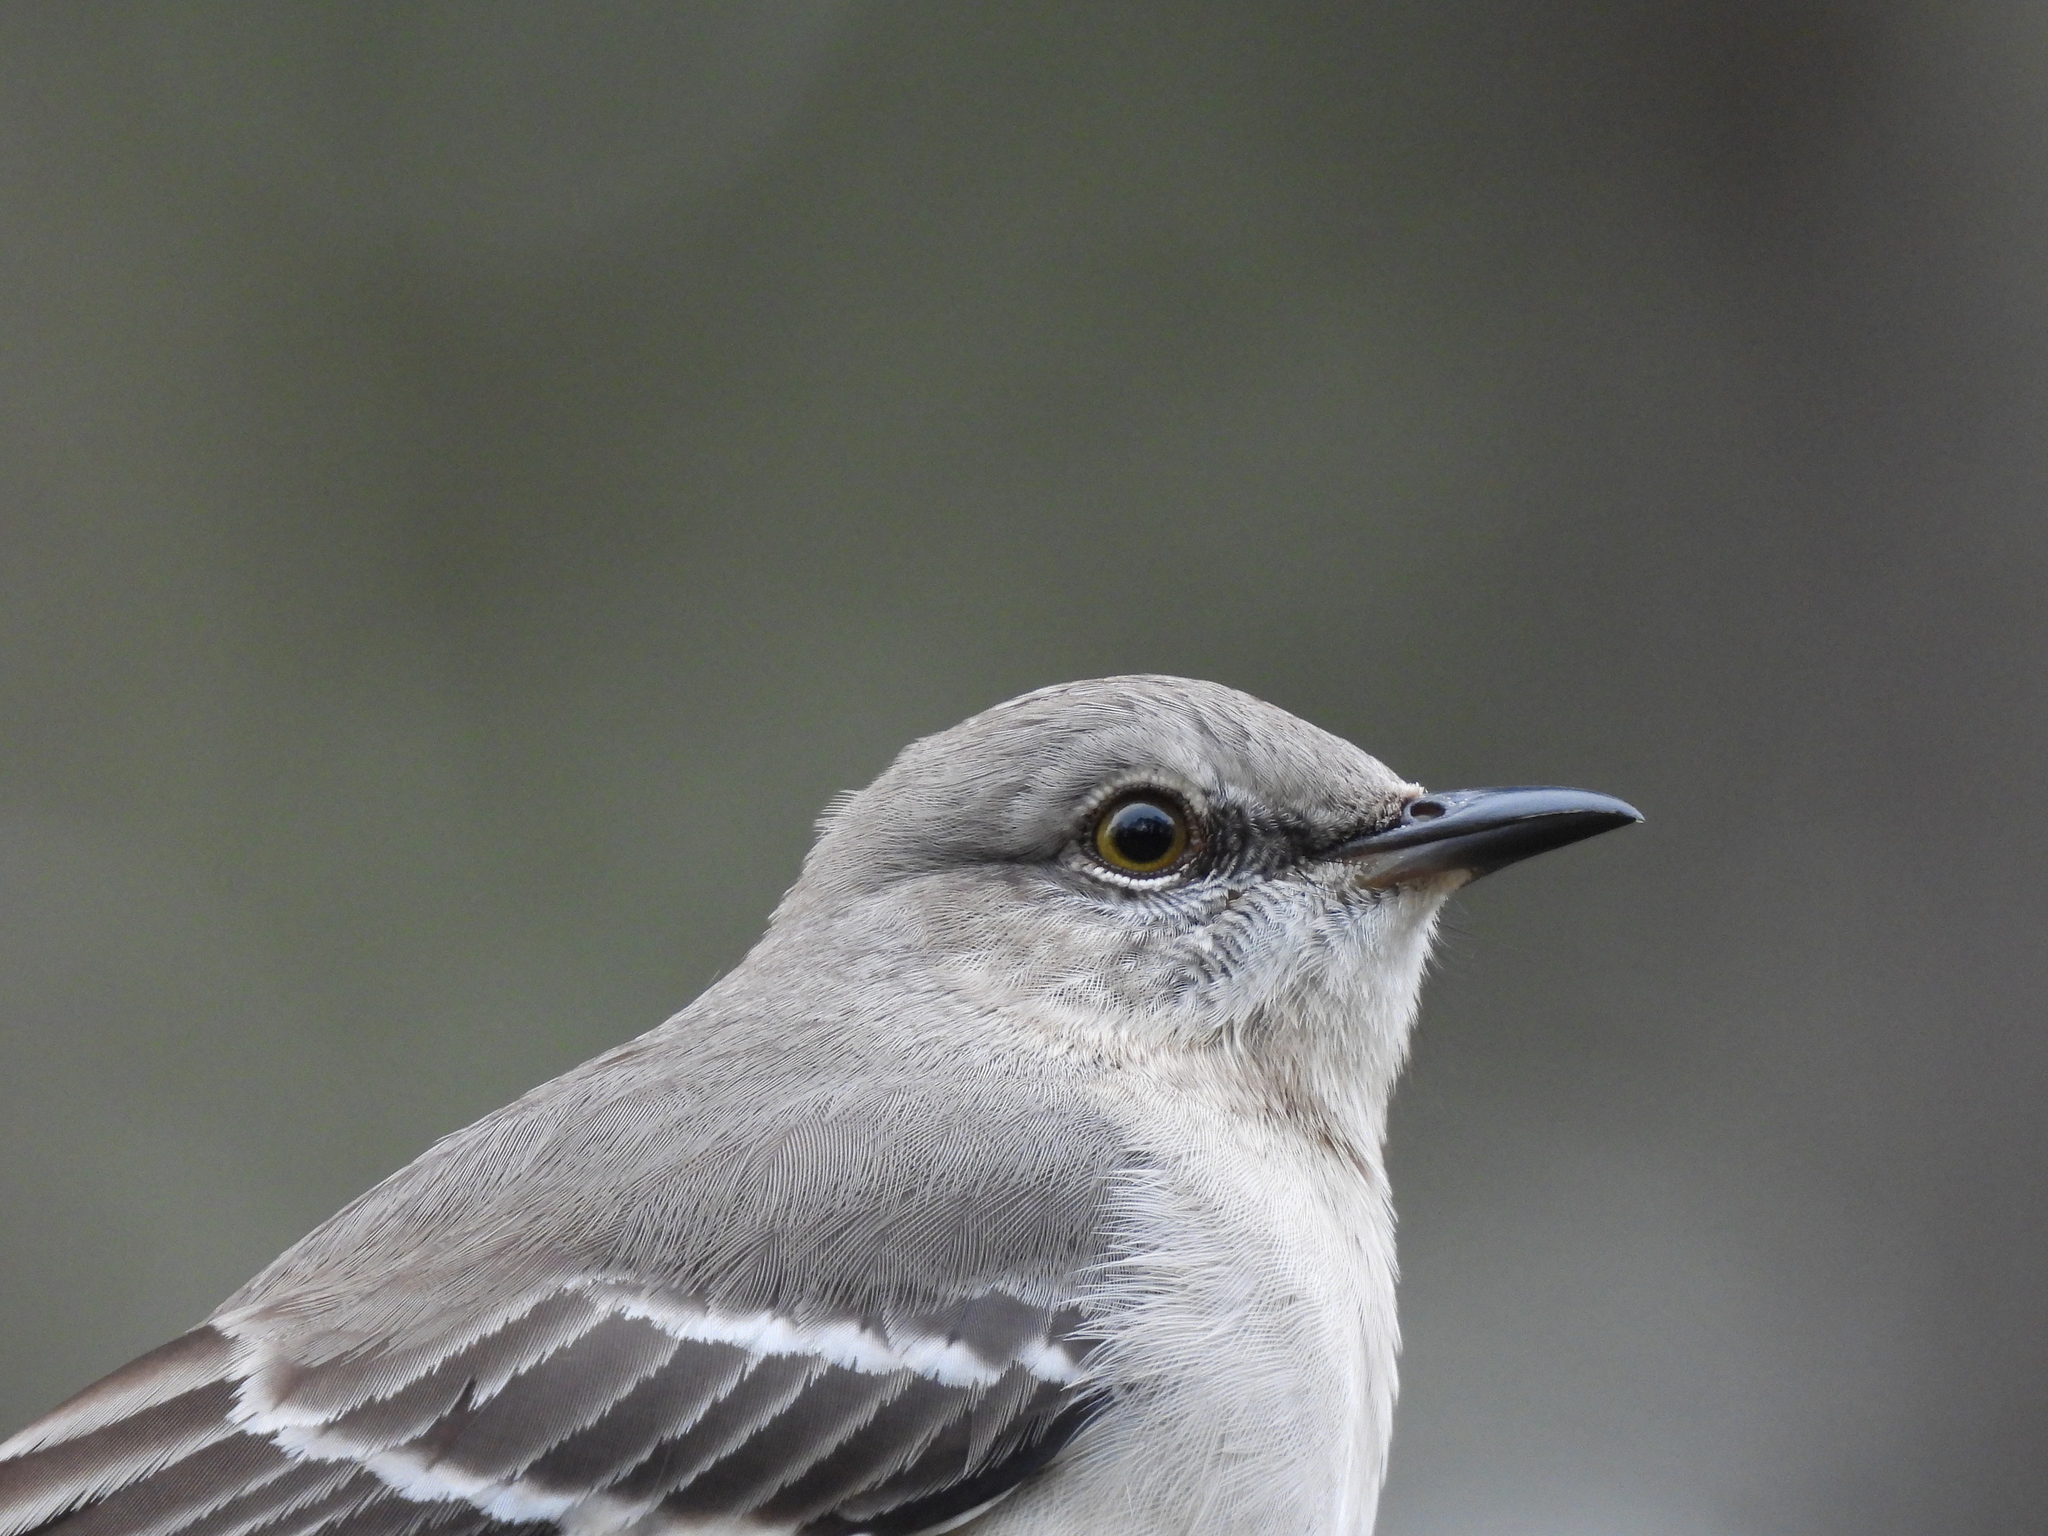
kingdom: Animalia
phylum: Chordata
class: Aves
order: Passeriformes
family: Mimidae
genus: Mimus
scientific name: Mimus polyglottos
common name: Northern mockingbird
